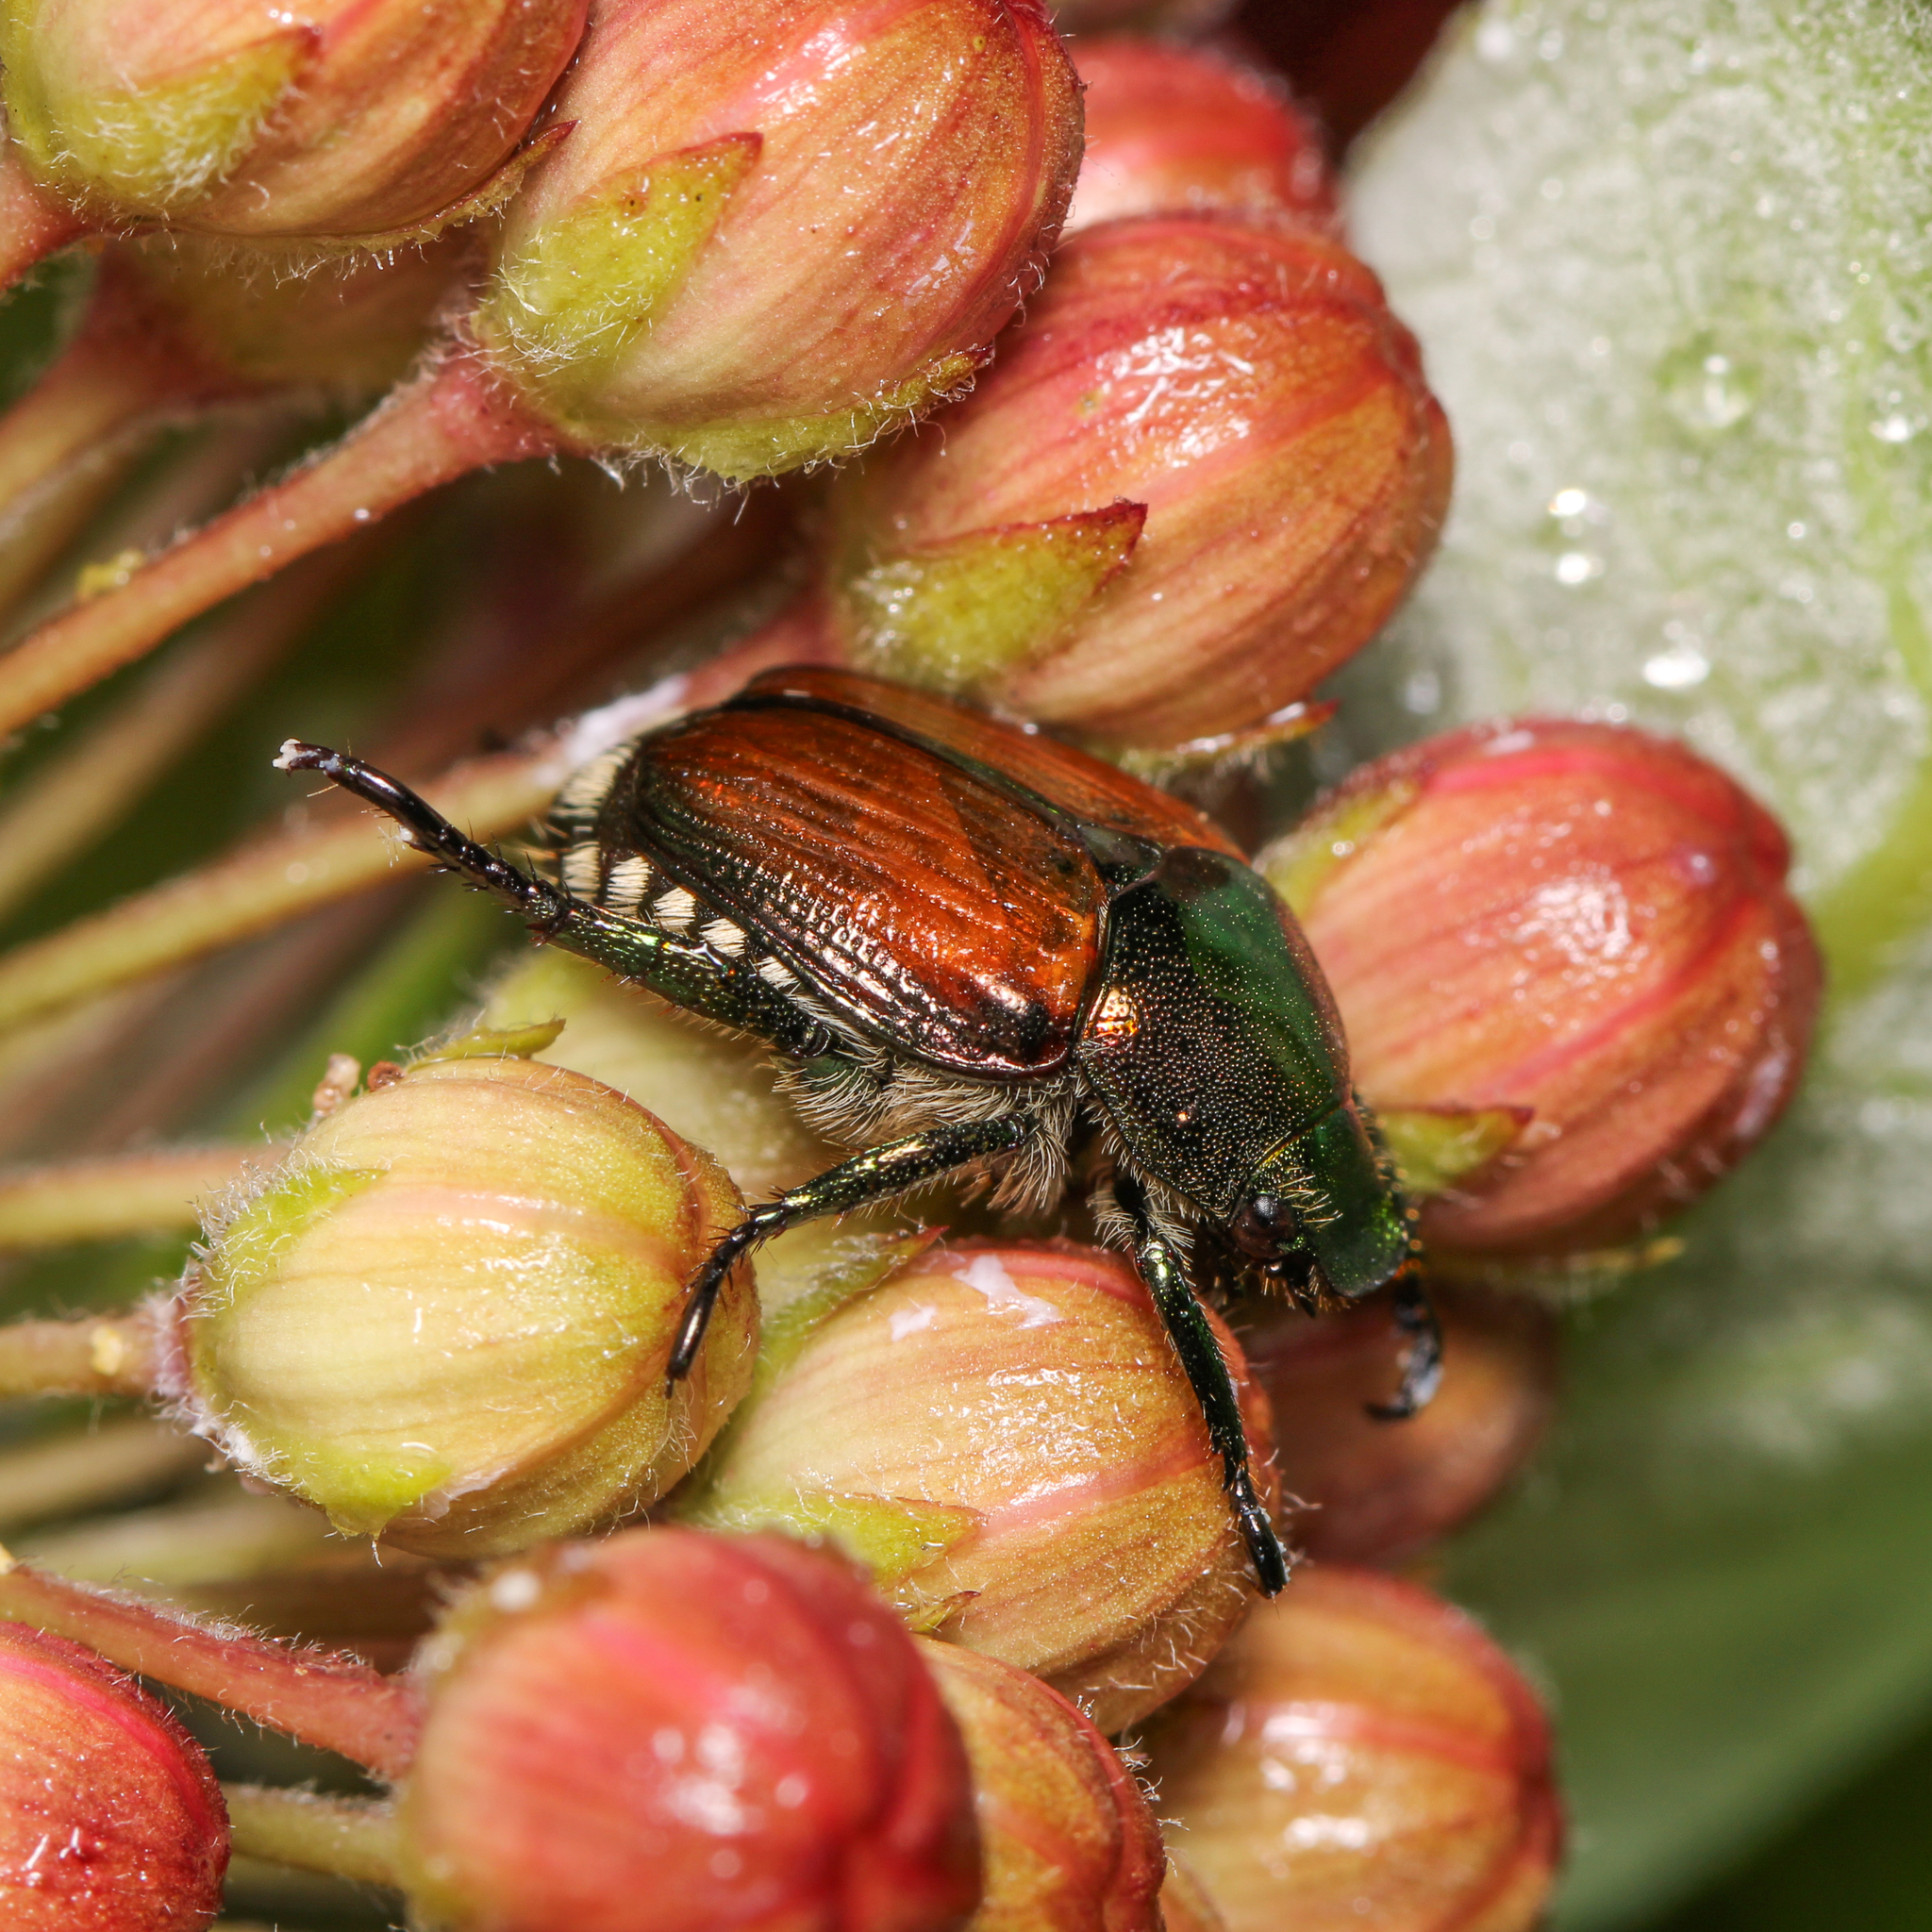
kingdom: Animalia
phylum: Arthropoda
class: Insecta
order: Coleoptera
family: Scarabaeidae
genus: Popillia
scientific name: Popillia japonica
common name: Japanese beetle
